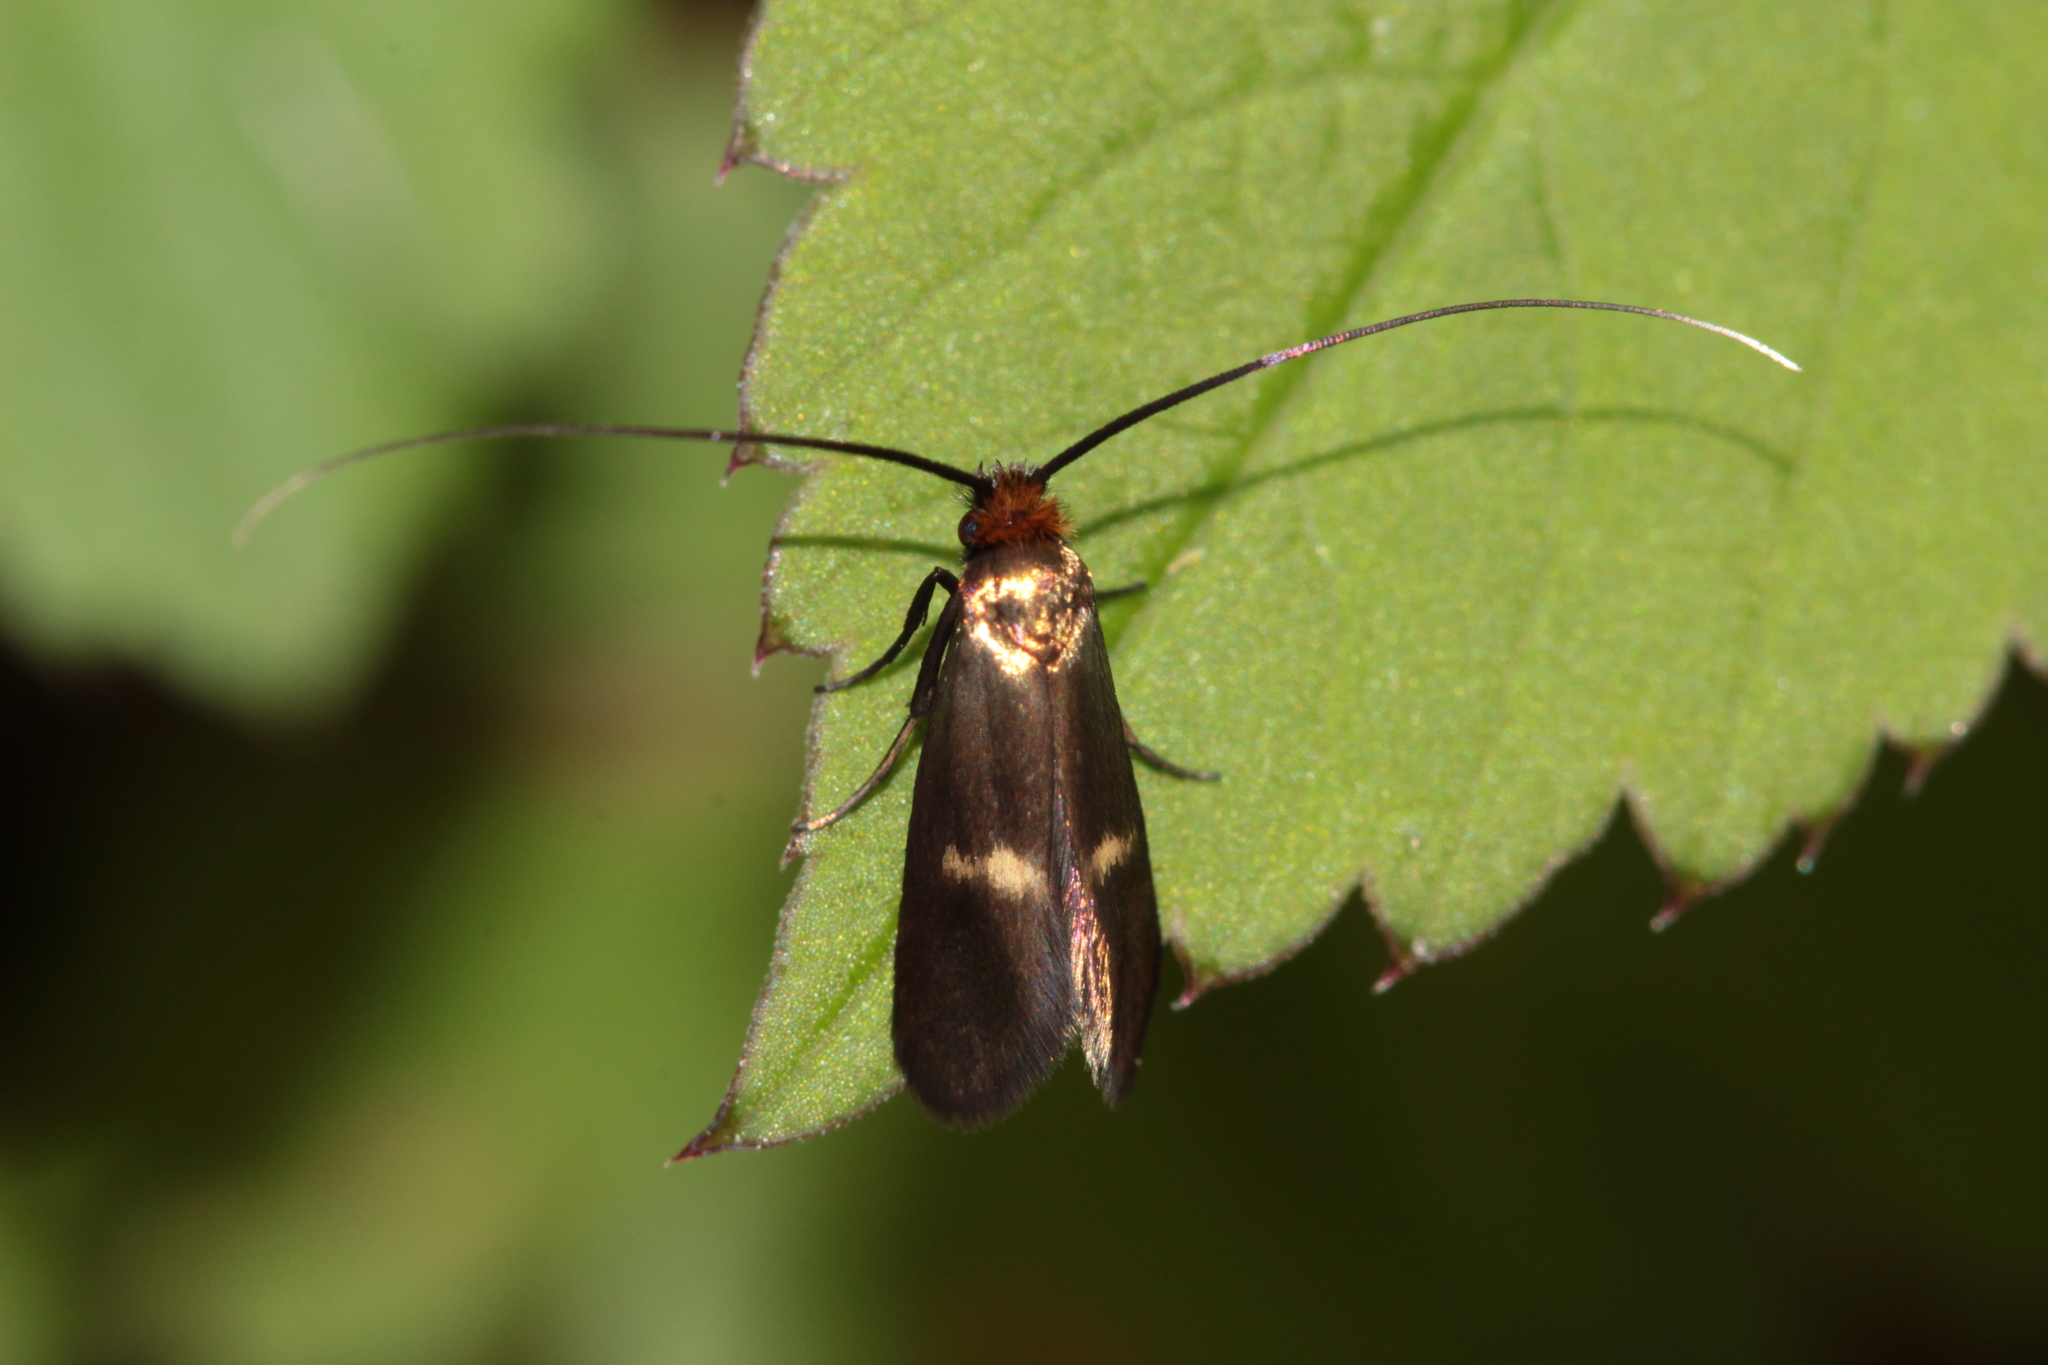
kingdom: Animalia
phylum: Arthropoda
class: Insecta
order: Lepidoptera
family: Adelidae
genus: Cauchas
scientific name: Cauchas rufimitrella
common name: Meadow long-horn
